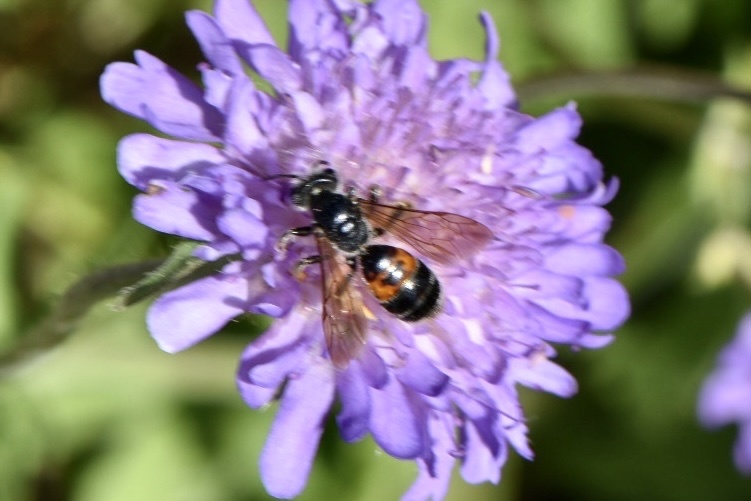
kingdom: Animalia
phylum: Arthropoda
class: Insecta
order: Hymenoptera
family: Andrenidae
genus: Andrena
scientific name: Andrena hattorfiana
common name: Large scabious mining bee
